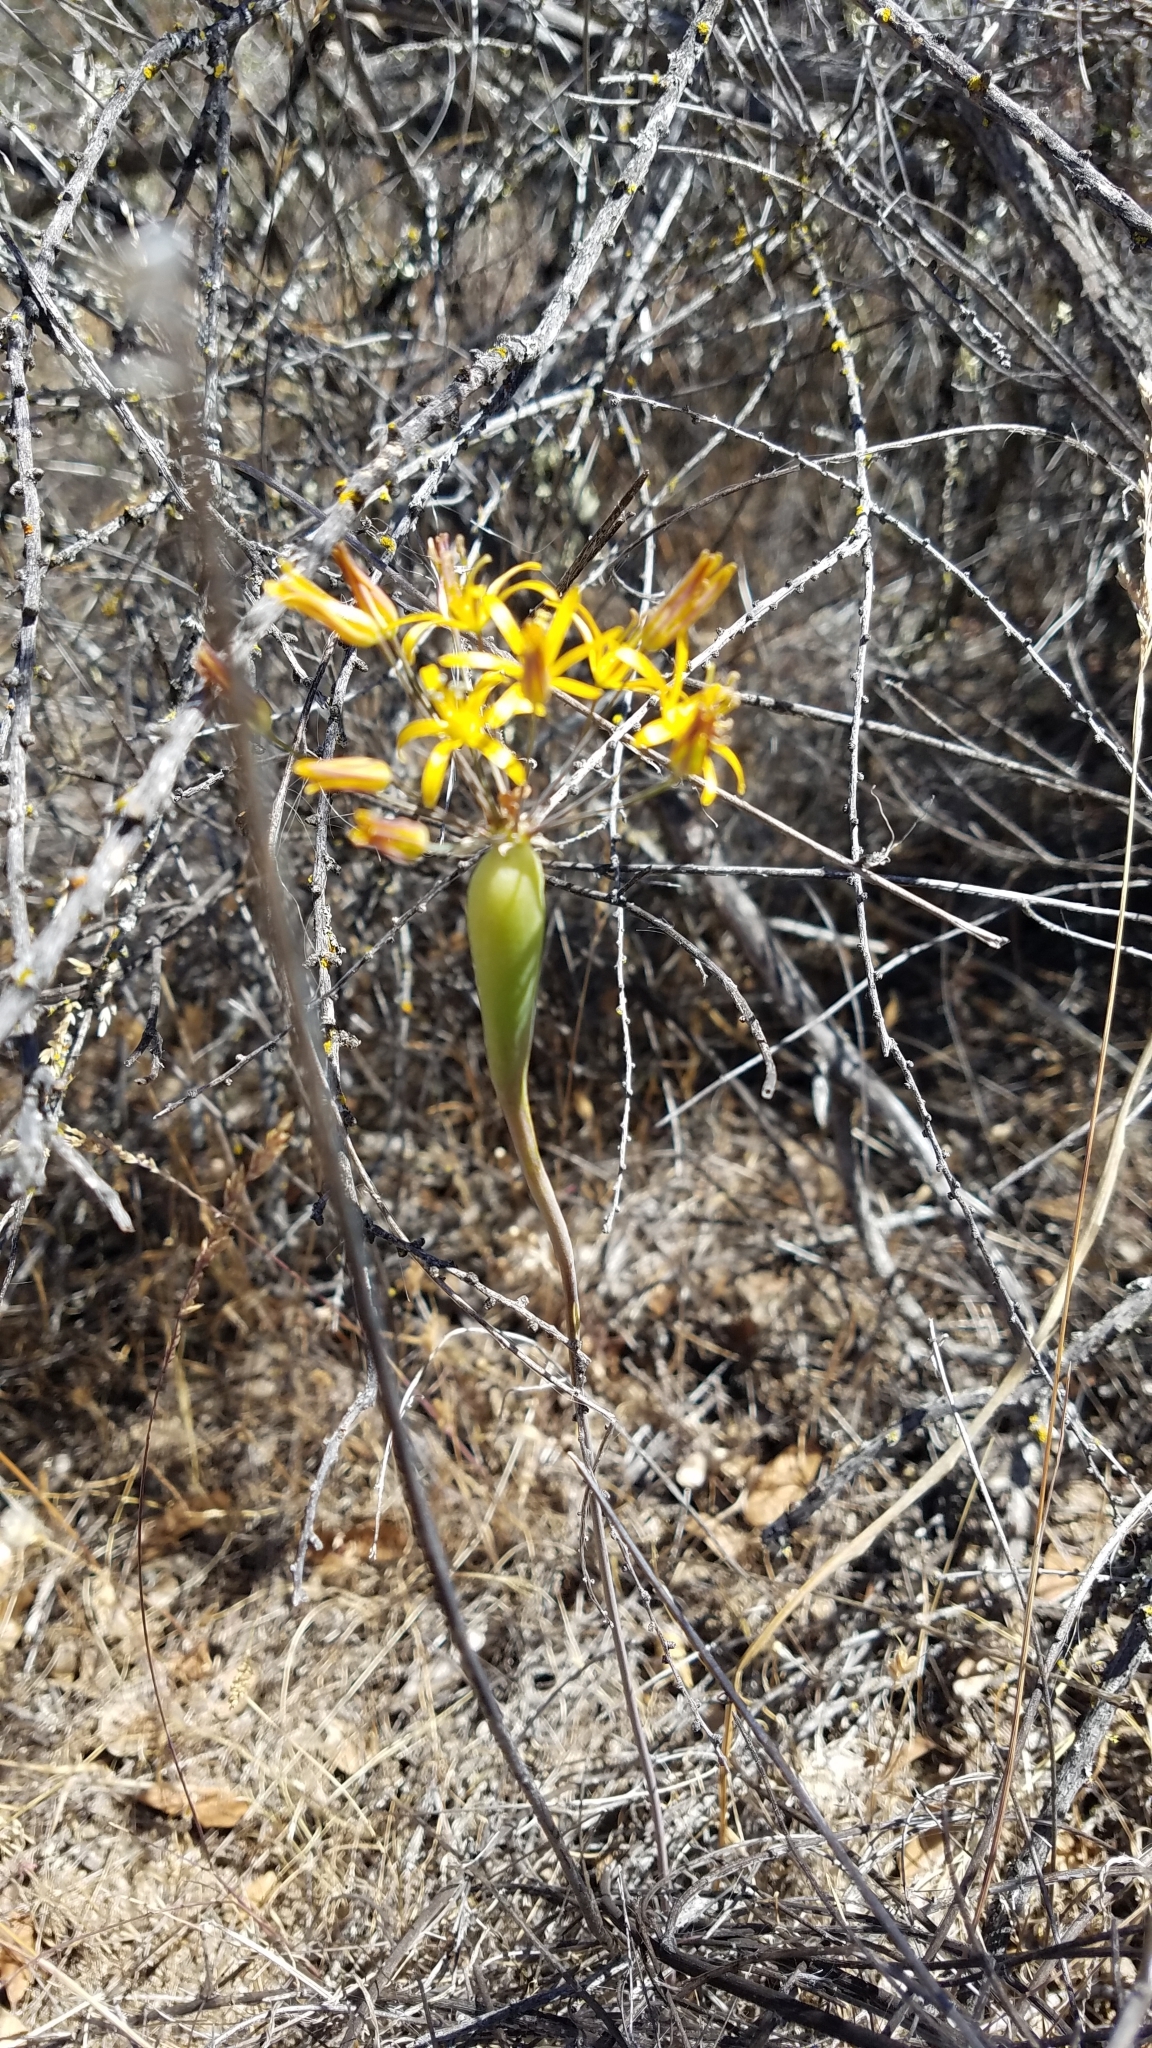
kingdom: Plantae
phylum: Tracheophyta
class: Liliopsida
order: Asparagales
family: Asparagaceae
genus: Bloomeria
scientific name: Bloomeria crocea
